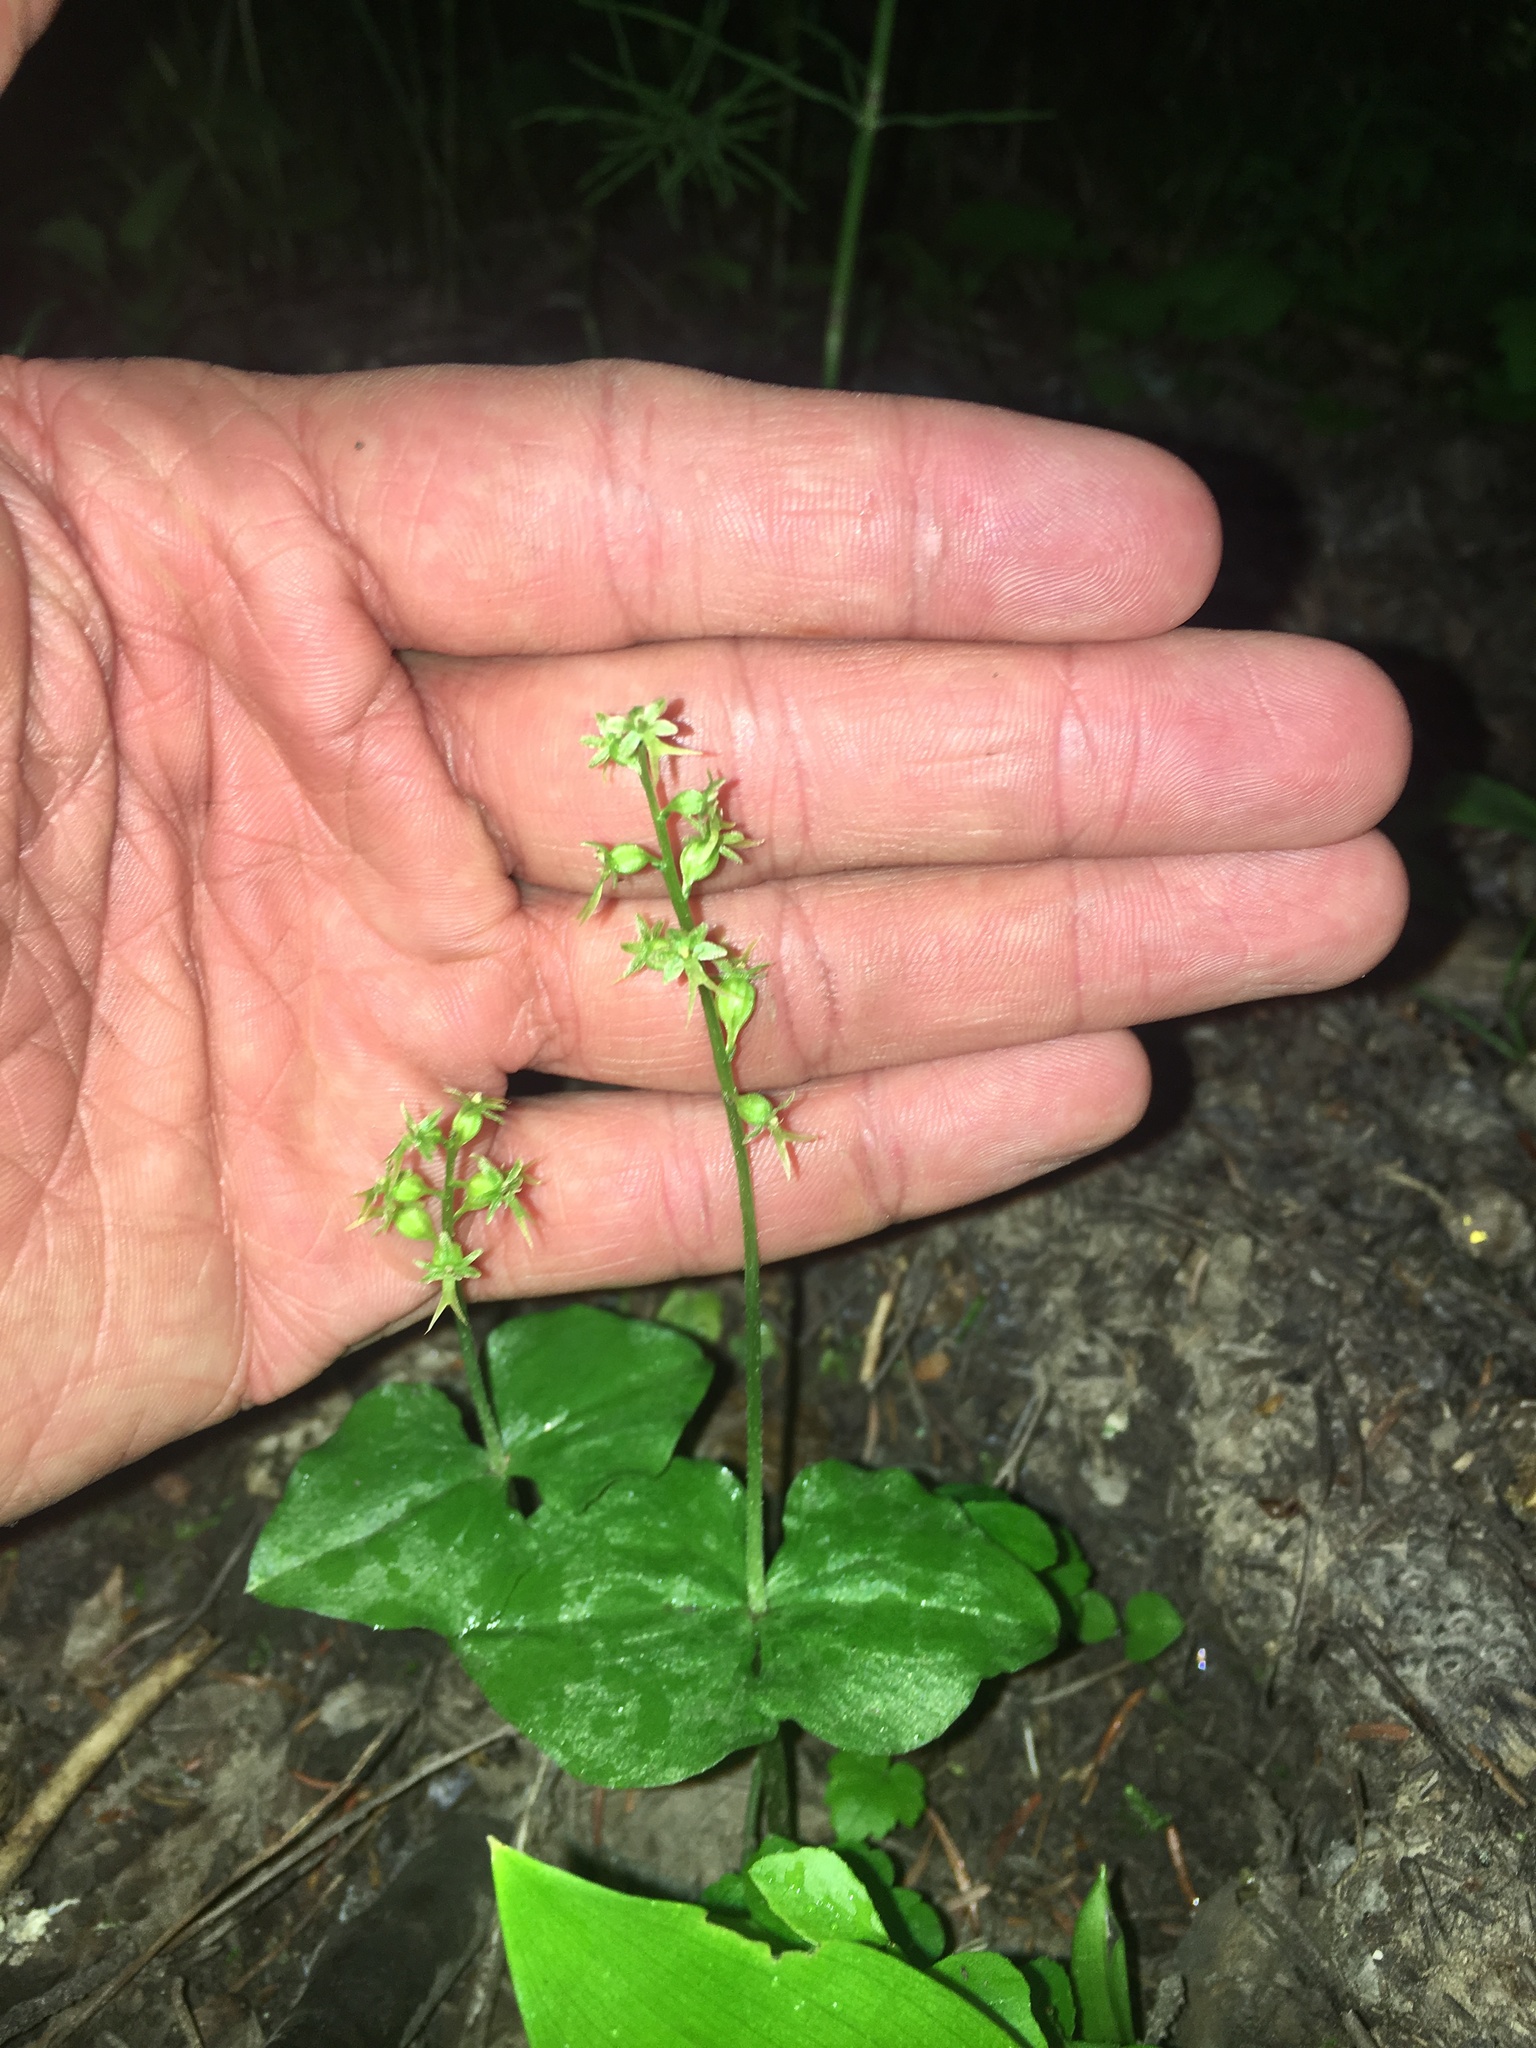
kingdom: Plantae
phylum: Tracheophyta
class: Liliopsida
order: Asparagales
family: Orchidaceae
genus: Neottia
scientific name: Neottia cordata
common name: Lesser twayblade
